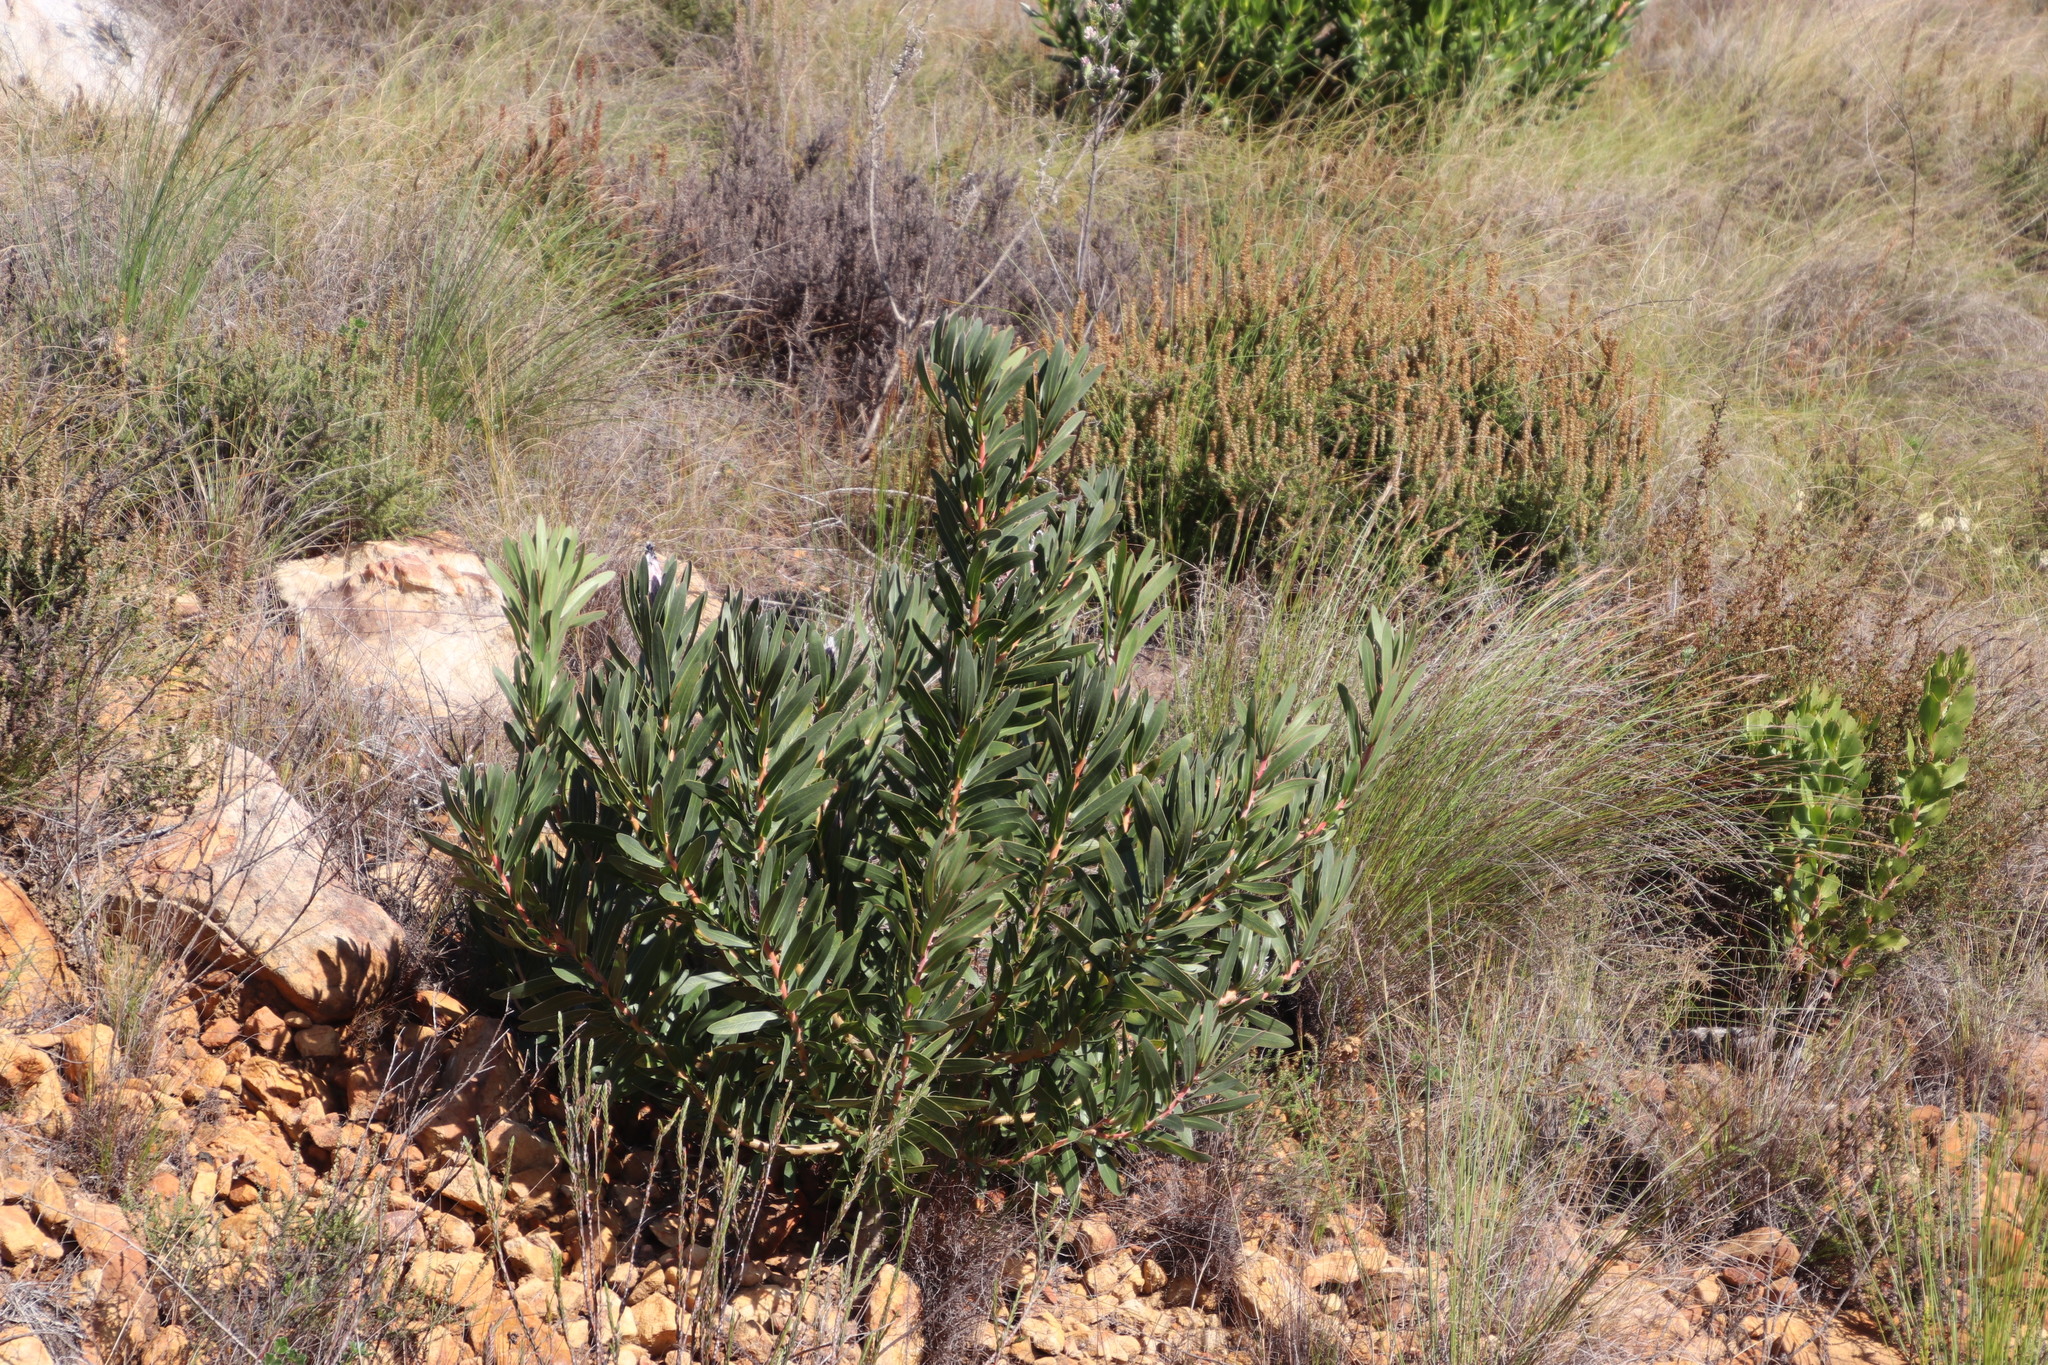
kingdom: Plantae
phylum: Tracheophyta
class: Magnoliopsida
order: Proteales
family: Proteaceae
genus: Protea
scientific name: Protea lepidocarpodendron
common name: Black-bearded protea
